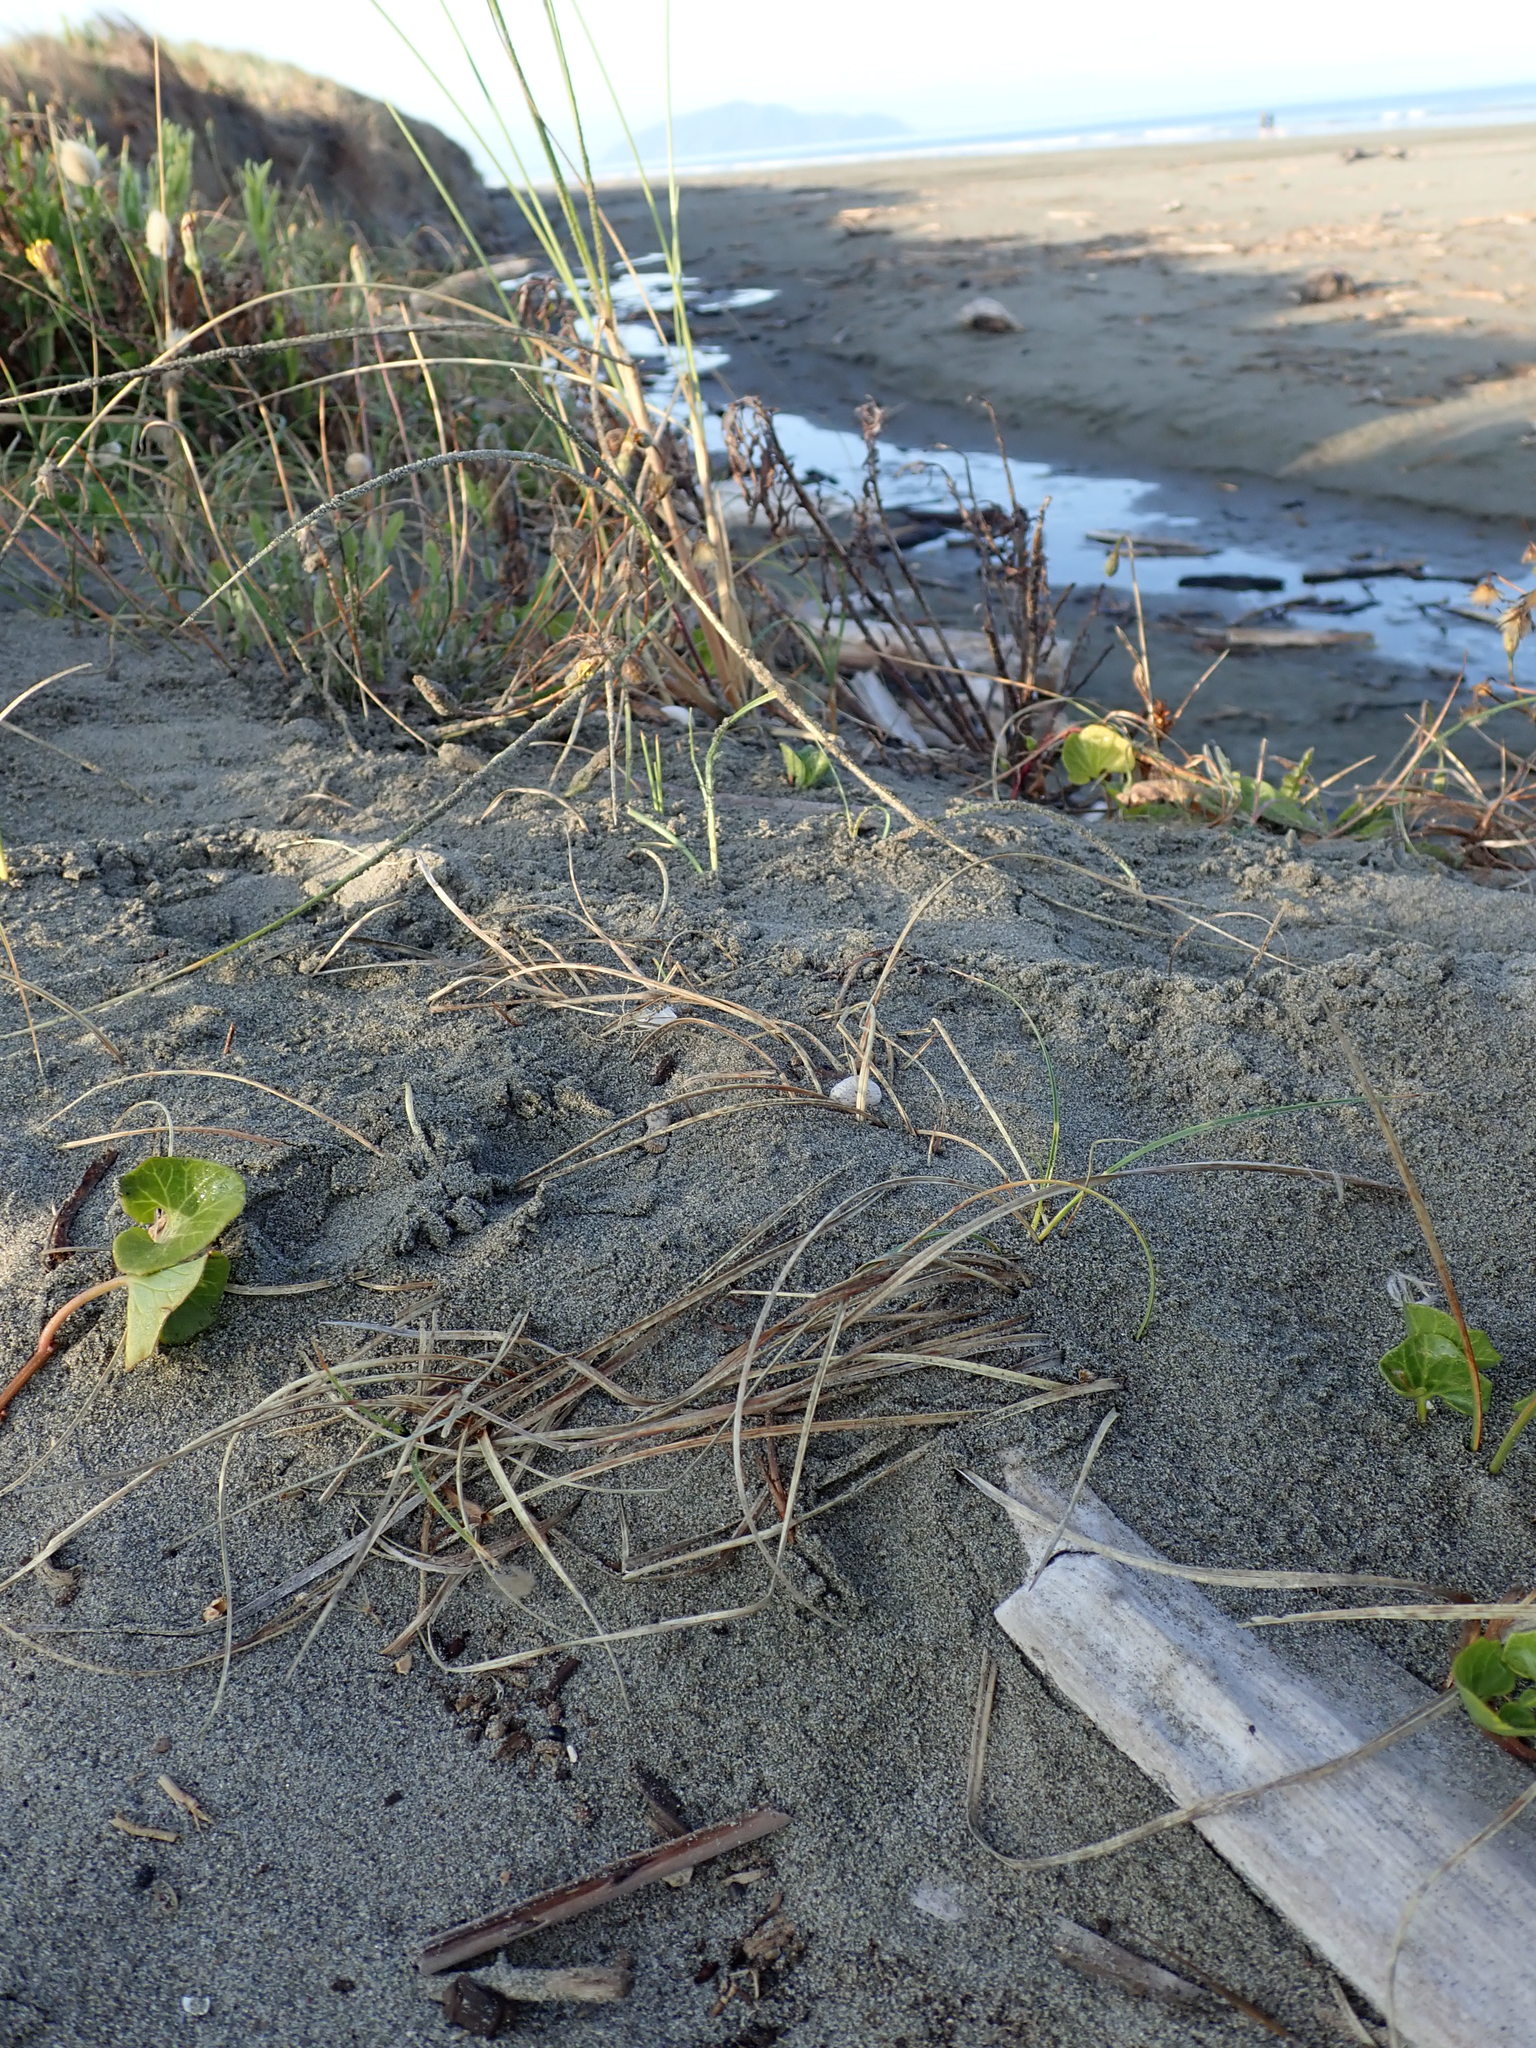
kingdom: Animalia
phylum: Arthropoda
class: Arachnida
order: Araneae
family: Lycosidae
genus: Anoteropsis
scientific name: Anoteropsis litoralis
